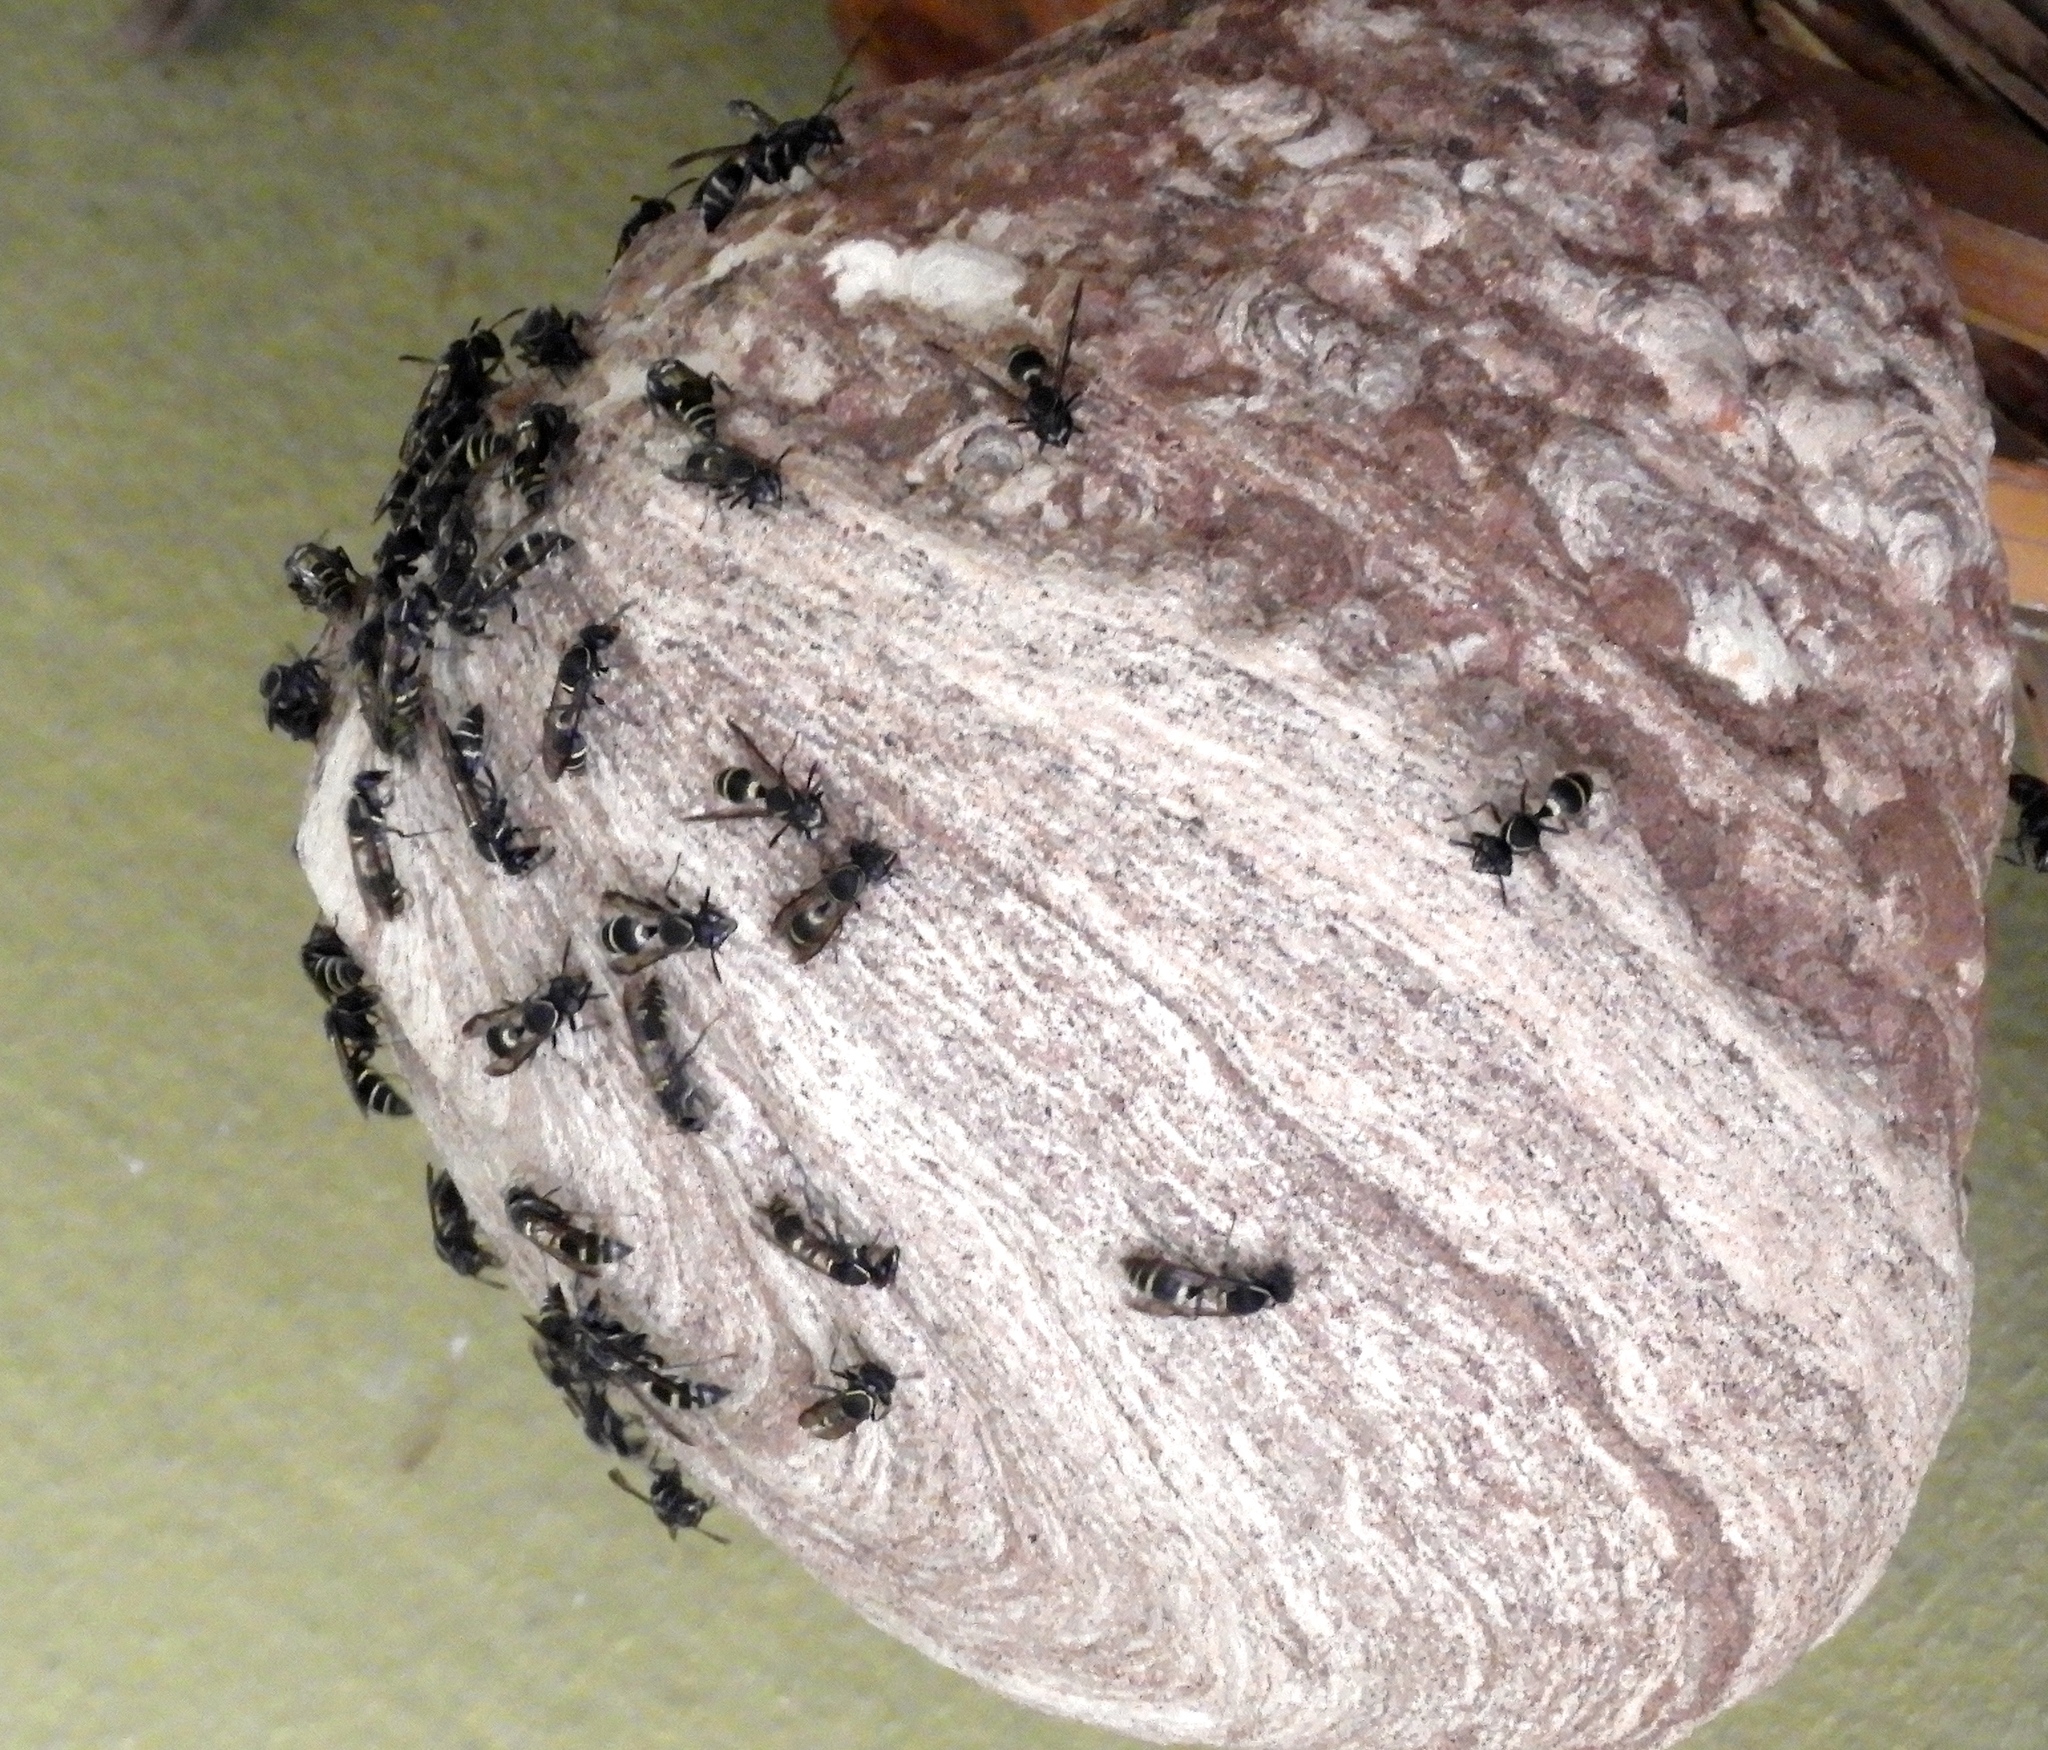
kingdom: Animalia
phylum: Arthropoda
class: Insecta
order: Hymenoptera
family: Eumenidae
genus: Polybia
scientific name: Polybia plebeja
